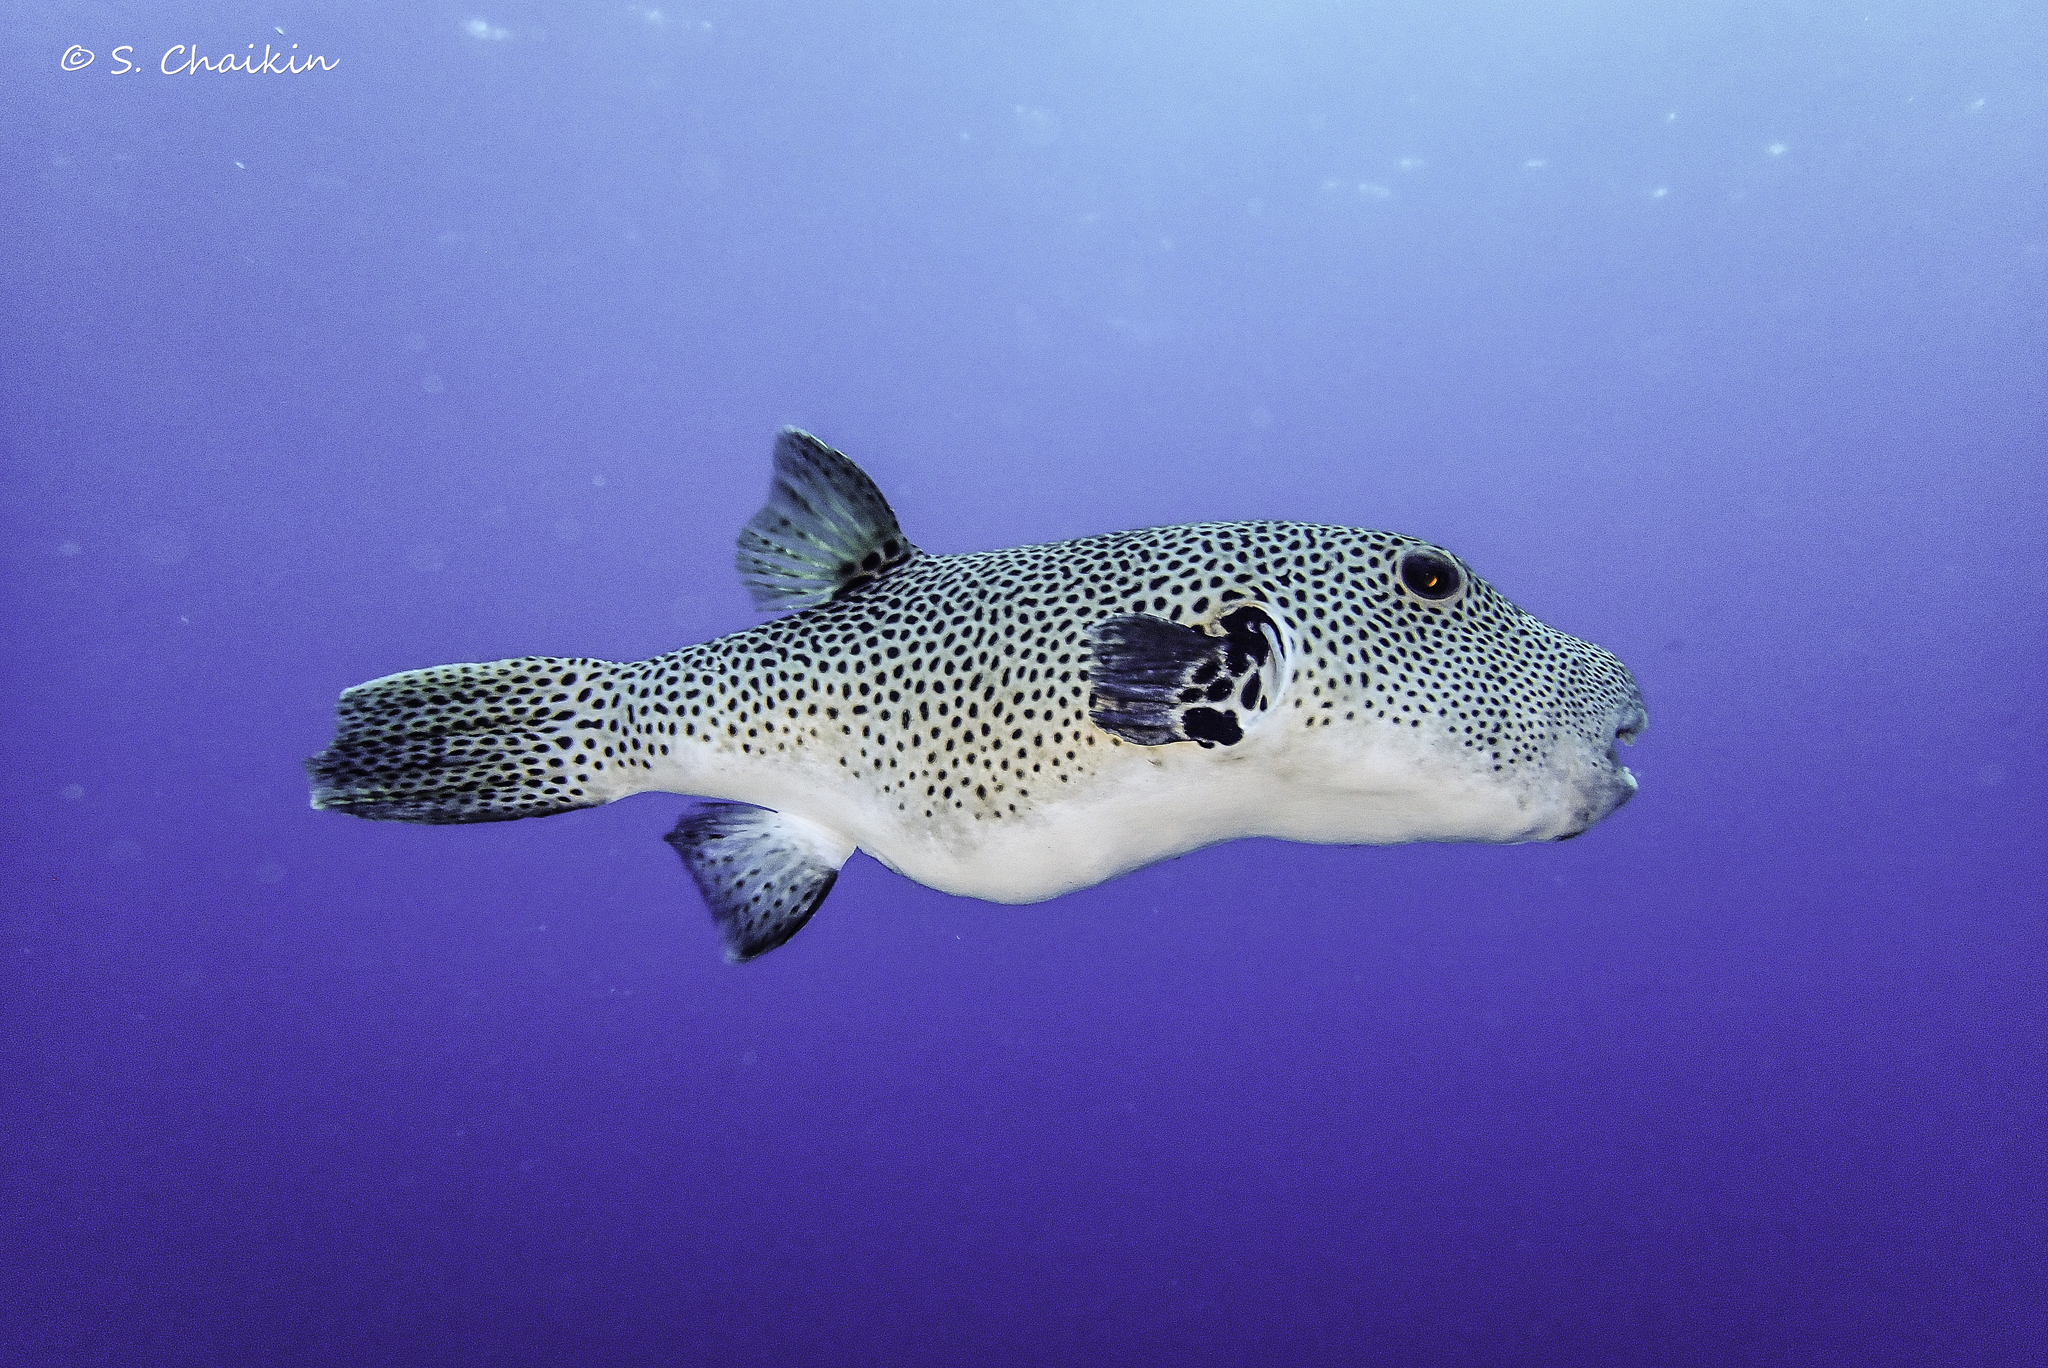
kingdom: Animalia
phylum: Chordata
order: Tetraodontiformes
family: Tetraodontidae
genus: Arothron
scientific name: Arothron stellatus
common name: Star blaasop
